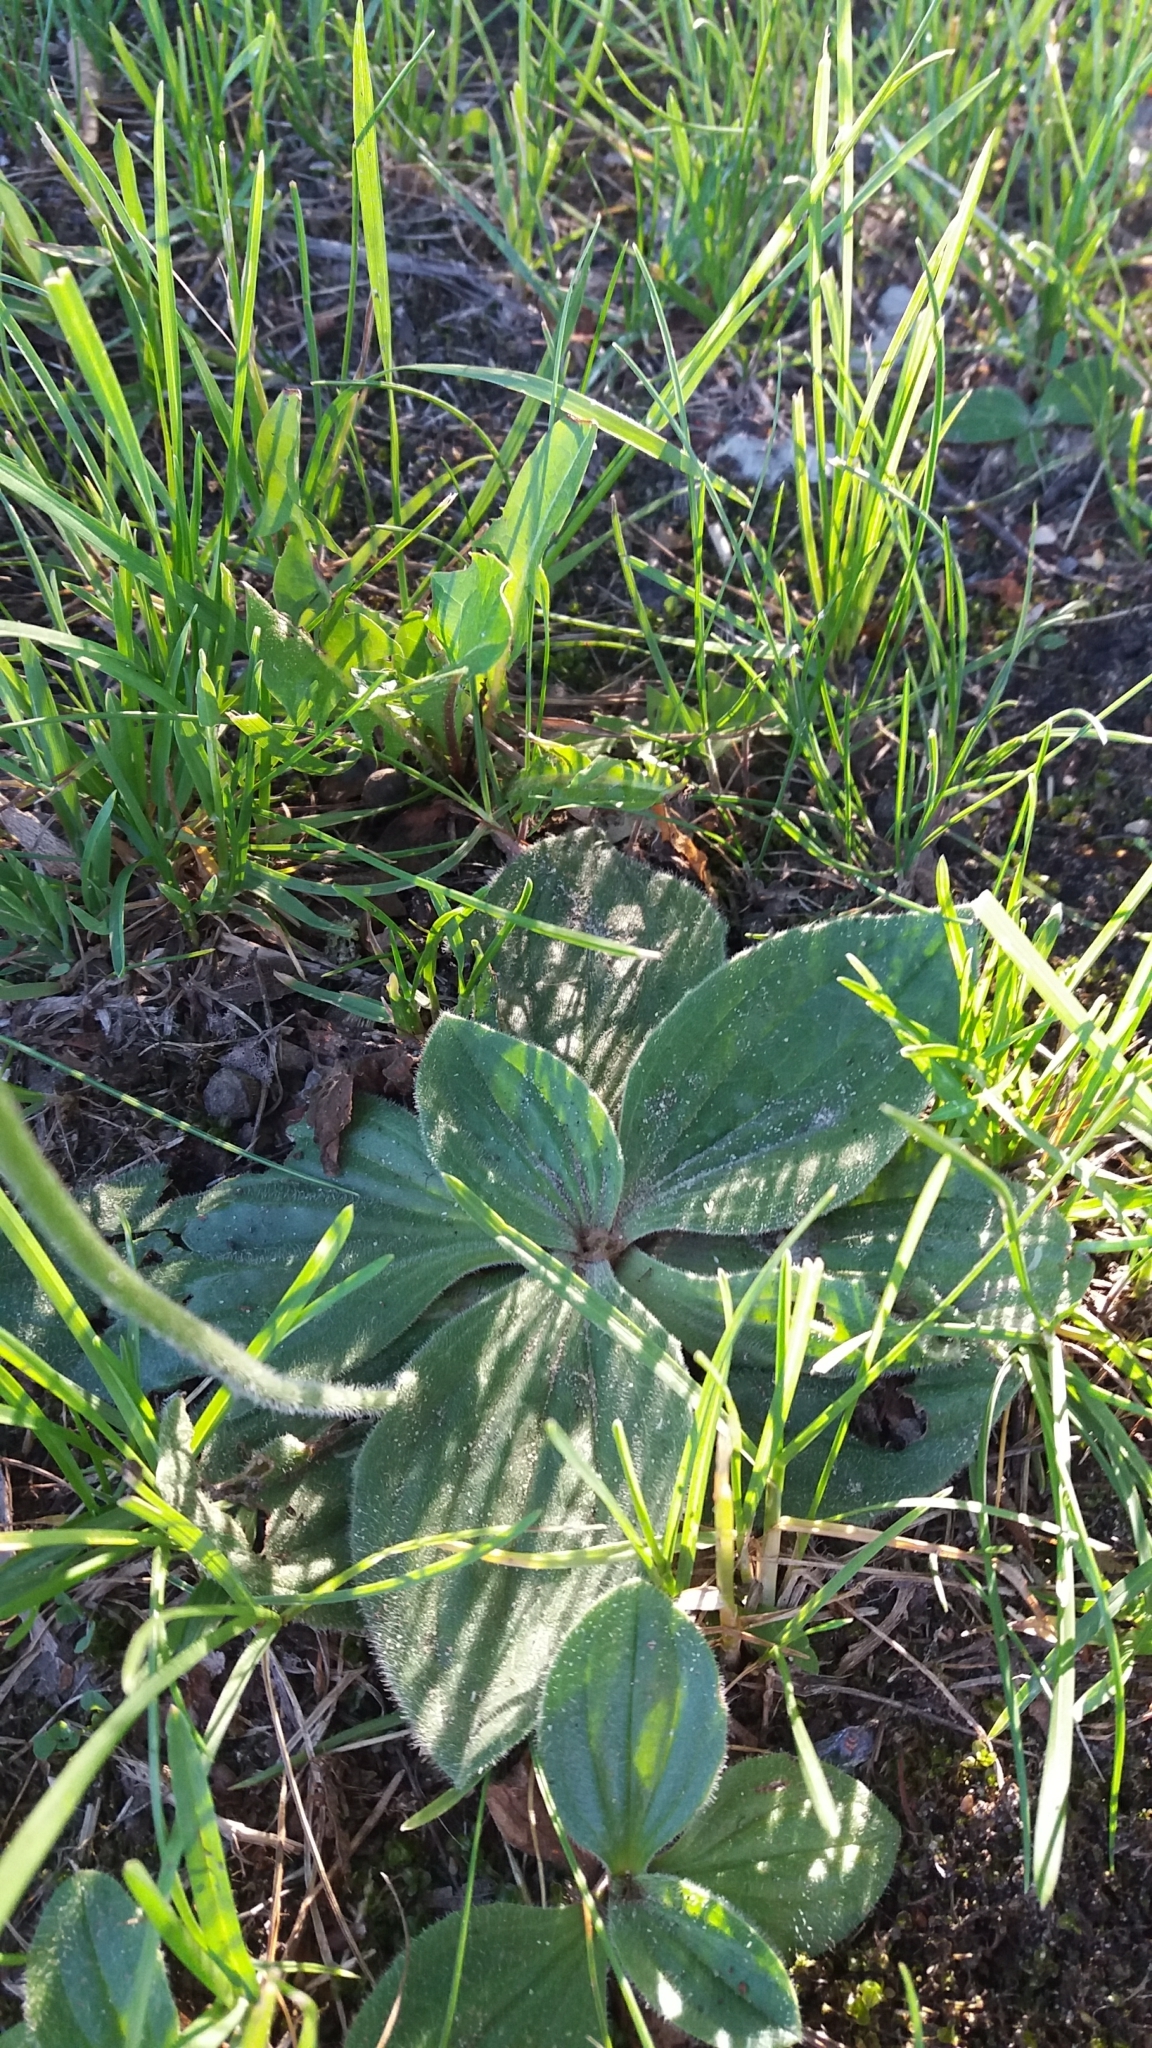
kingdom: Plantae
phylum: Tracheophyta
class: Magnoliopsida
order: Lamiales
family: Plantaginaceae
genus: Plantago
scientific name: Plantago media
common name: Hoary plantain
